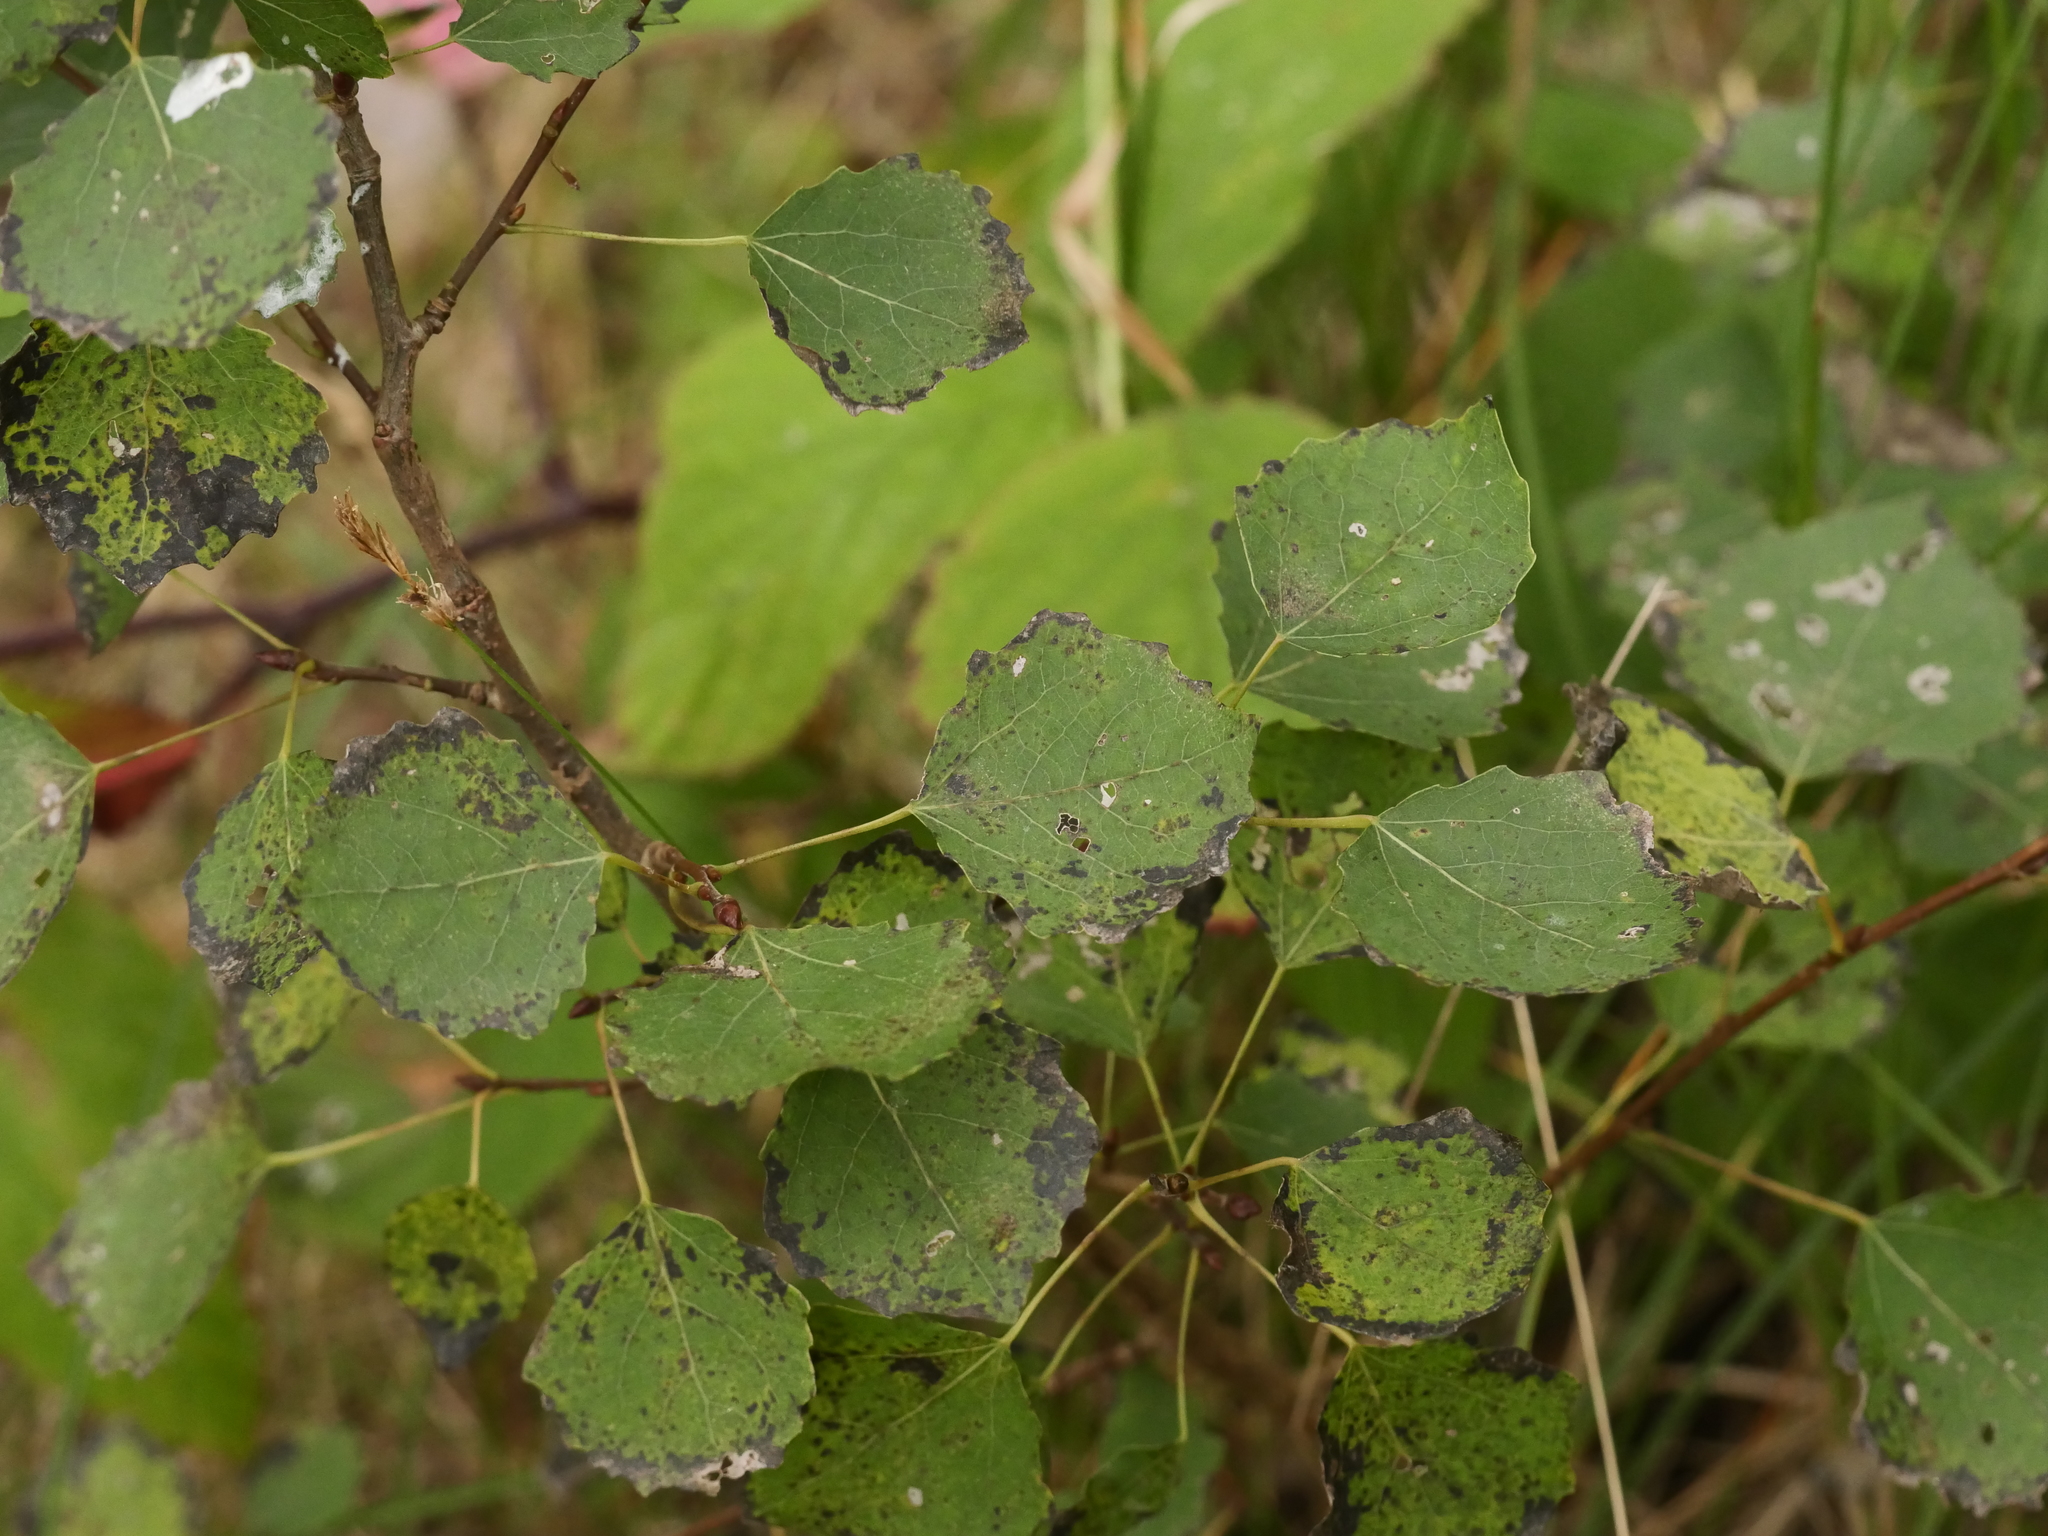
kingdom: Plantae
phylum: Tracheophyta
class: Magnoliopsida
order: Malpighiales
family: Salicaceae
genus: Populus
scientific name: Populus tremula
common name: European aspen
